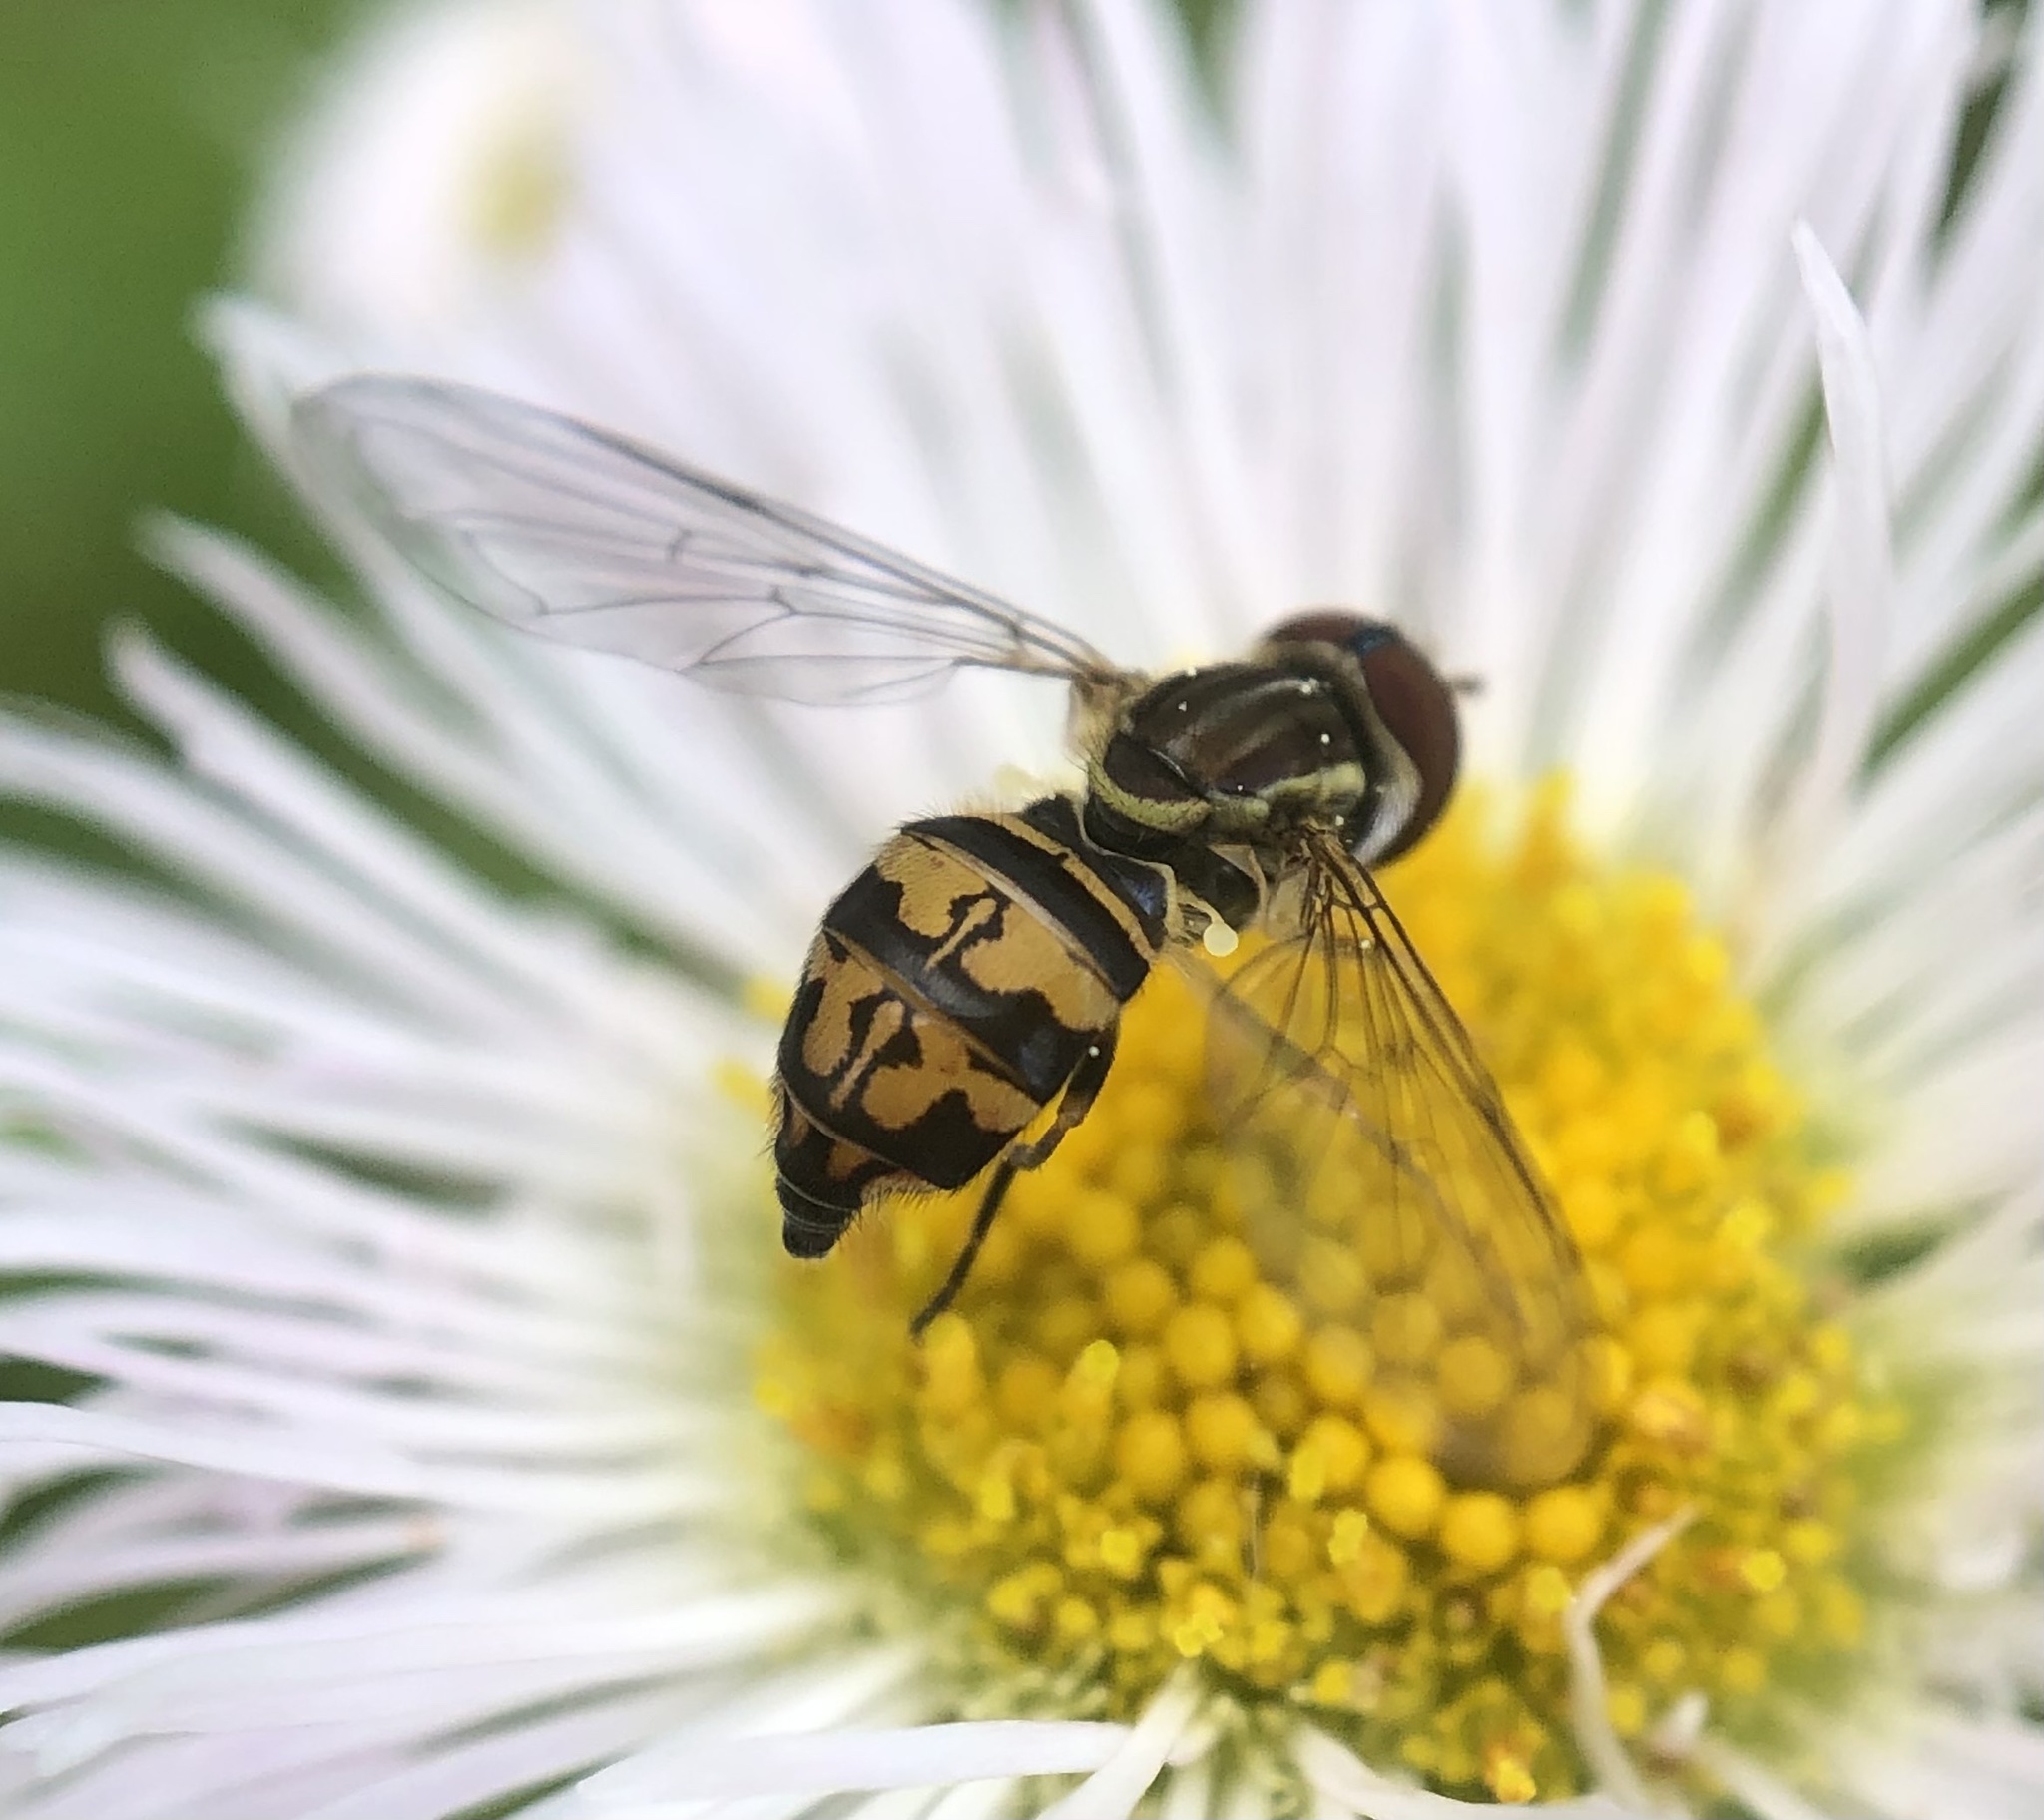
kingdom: Animalia
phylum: Arthropoda
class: Insecta
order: Diptera
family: Syrphidae
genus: Toxomerus
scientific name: Toxomerus geminatus
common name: Eastern calligrapher
